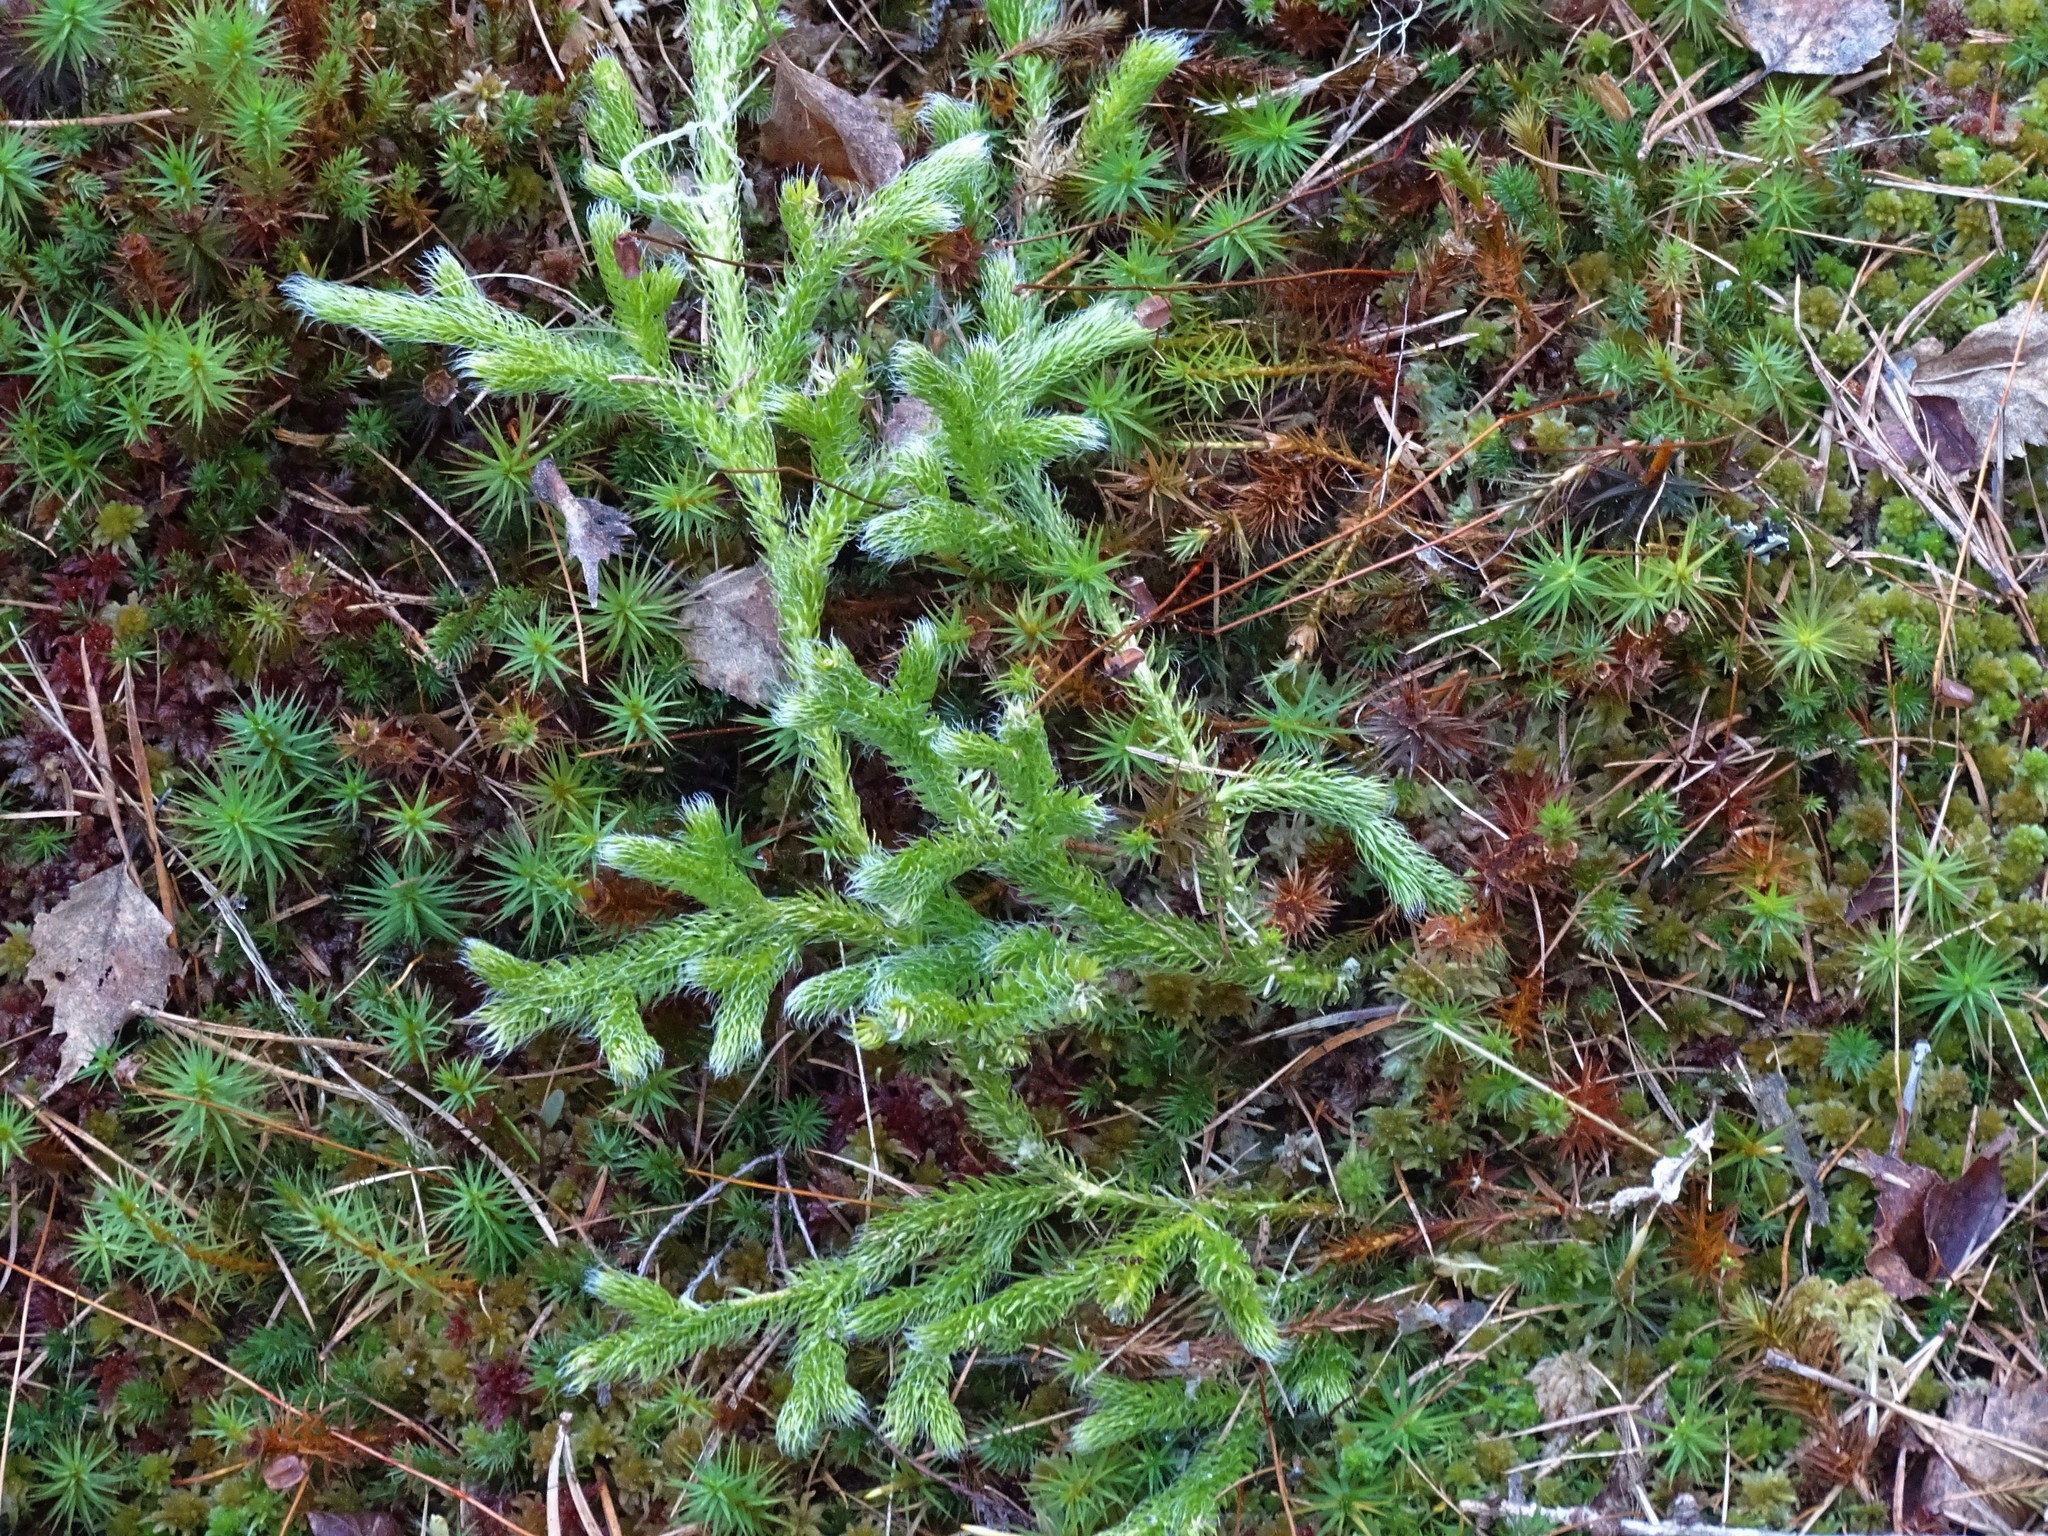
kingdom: Plantae
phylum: Tracheophyta
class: Lycopodiopsida
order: Lycopodiales
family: Lycopodiaceae
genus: Lycopodium
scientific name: Lycopodium clavatum
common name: Stag's-horn clubmoss
